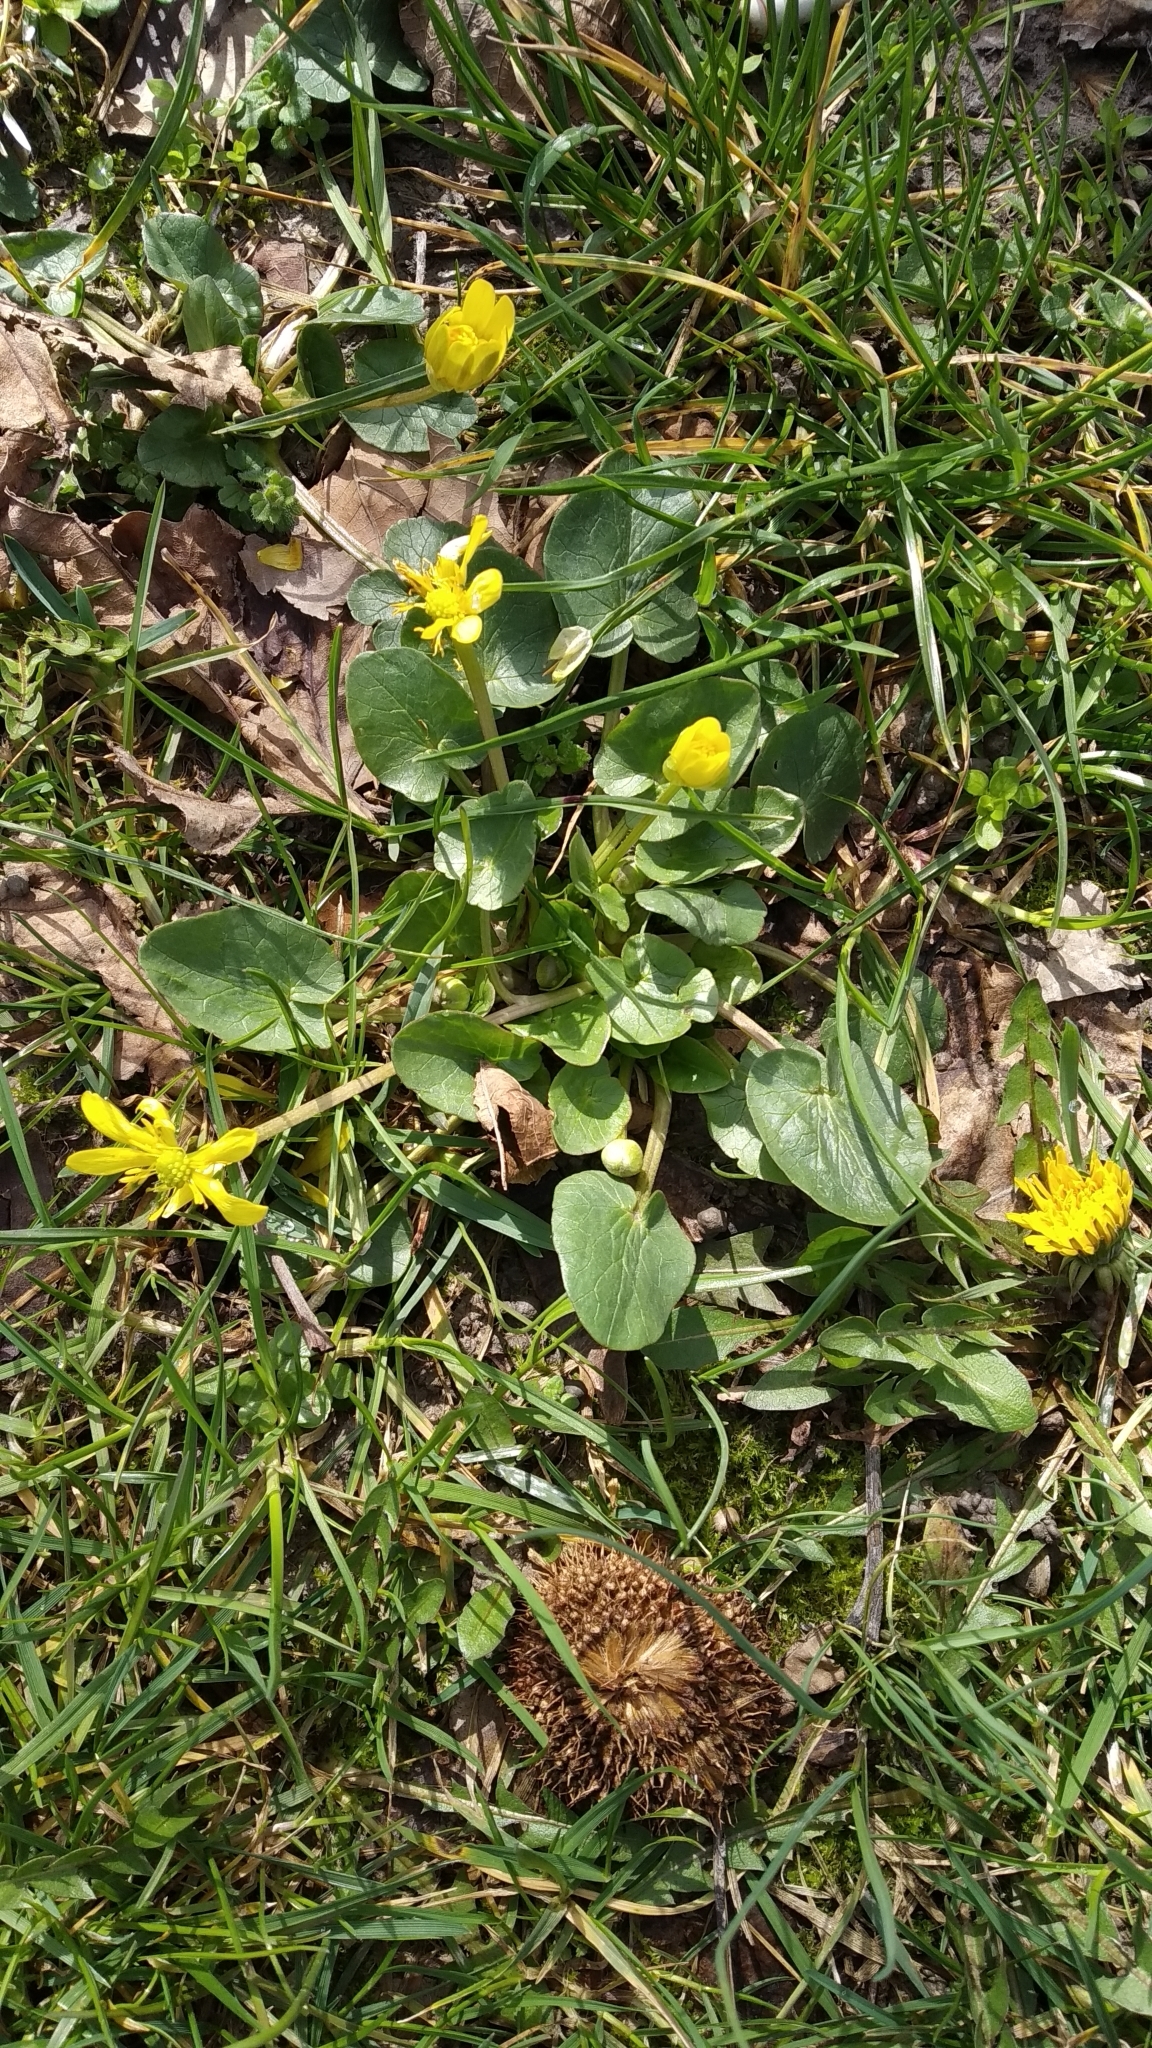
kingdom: Plantae
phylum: Tracheophyta
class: Magnoliopsida
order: Ranunculales
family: Ranunculaceae
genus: Ficaria
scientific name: Ficaria verna
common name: Lesser celandine
